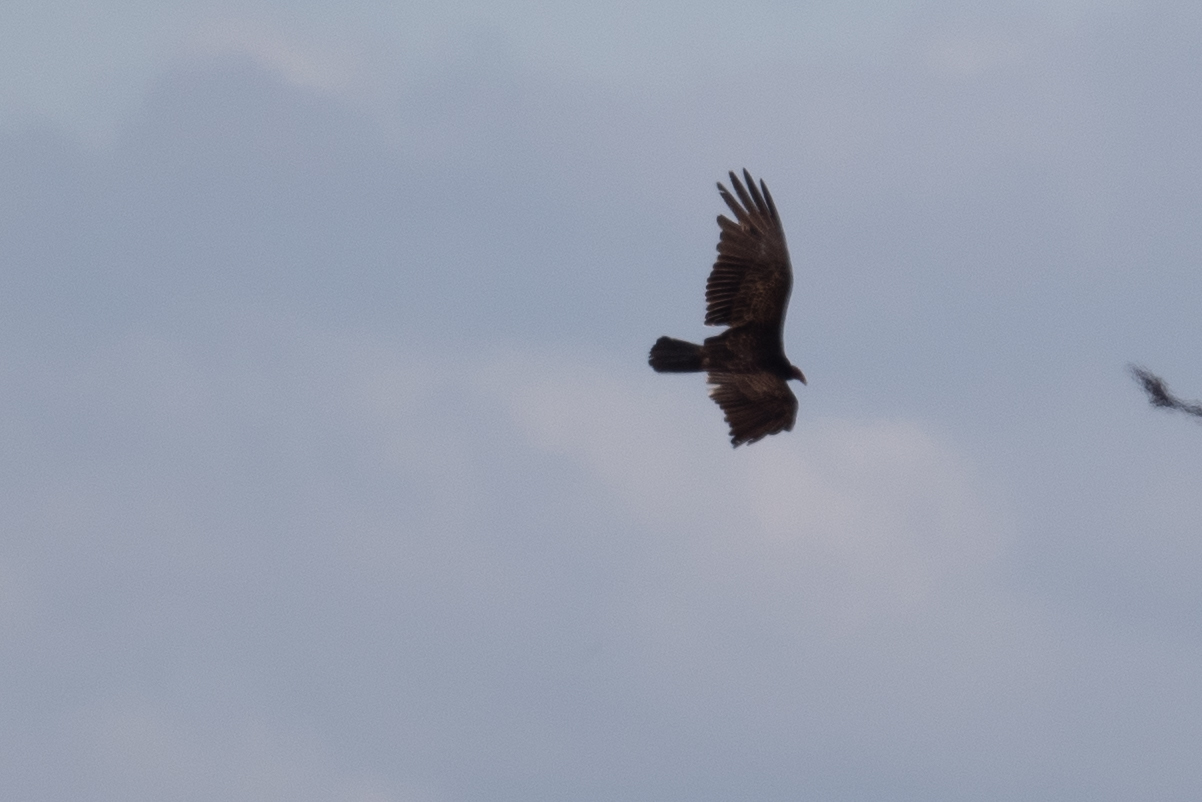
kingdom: Animalia
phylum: Chordata
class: Aves
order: Accipitriformes
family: Cathartidae
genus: Cathartes
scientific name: Cathartes aura
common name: Turkey vulture
